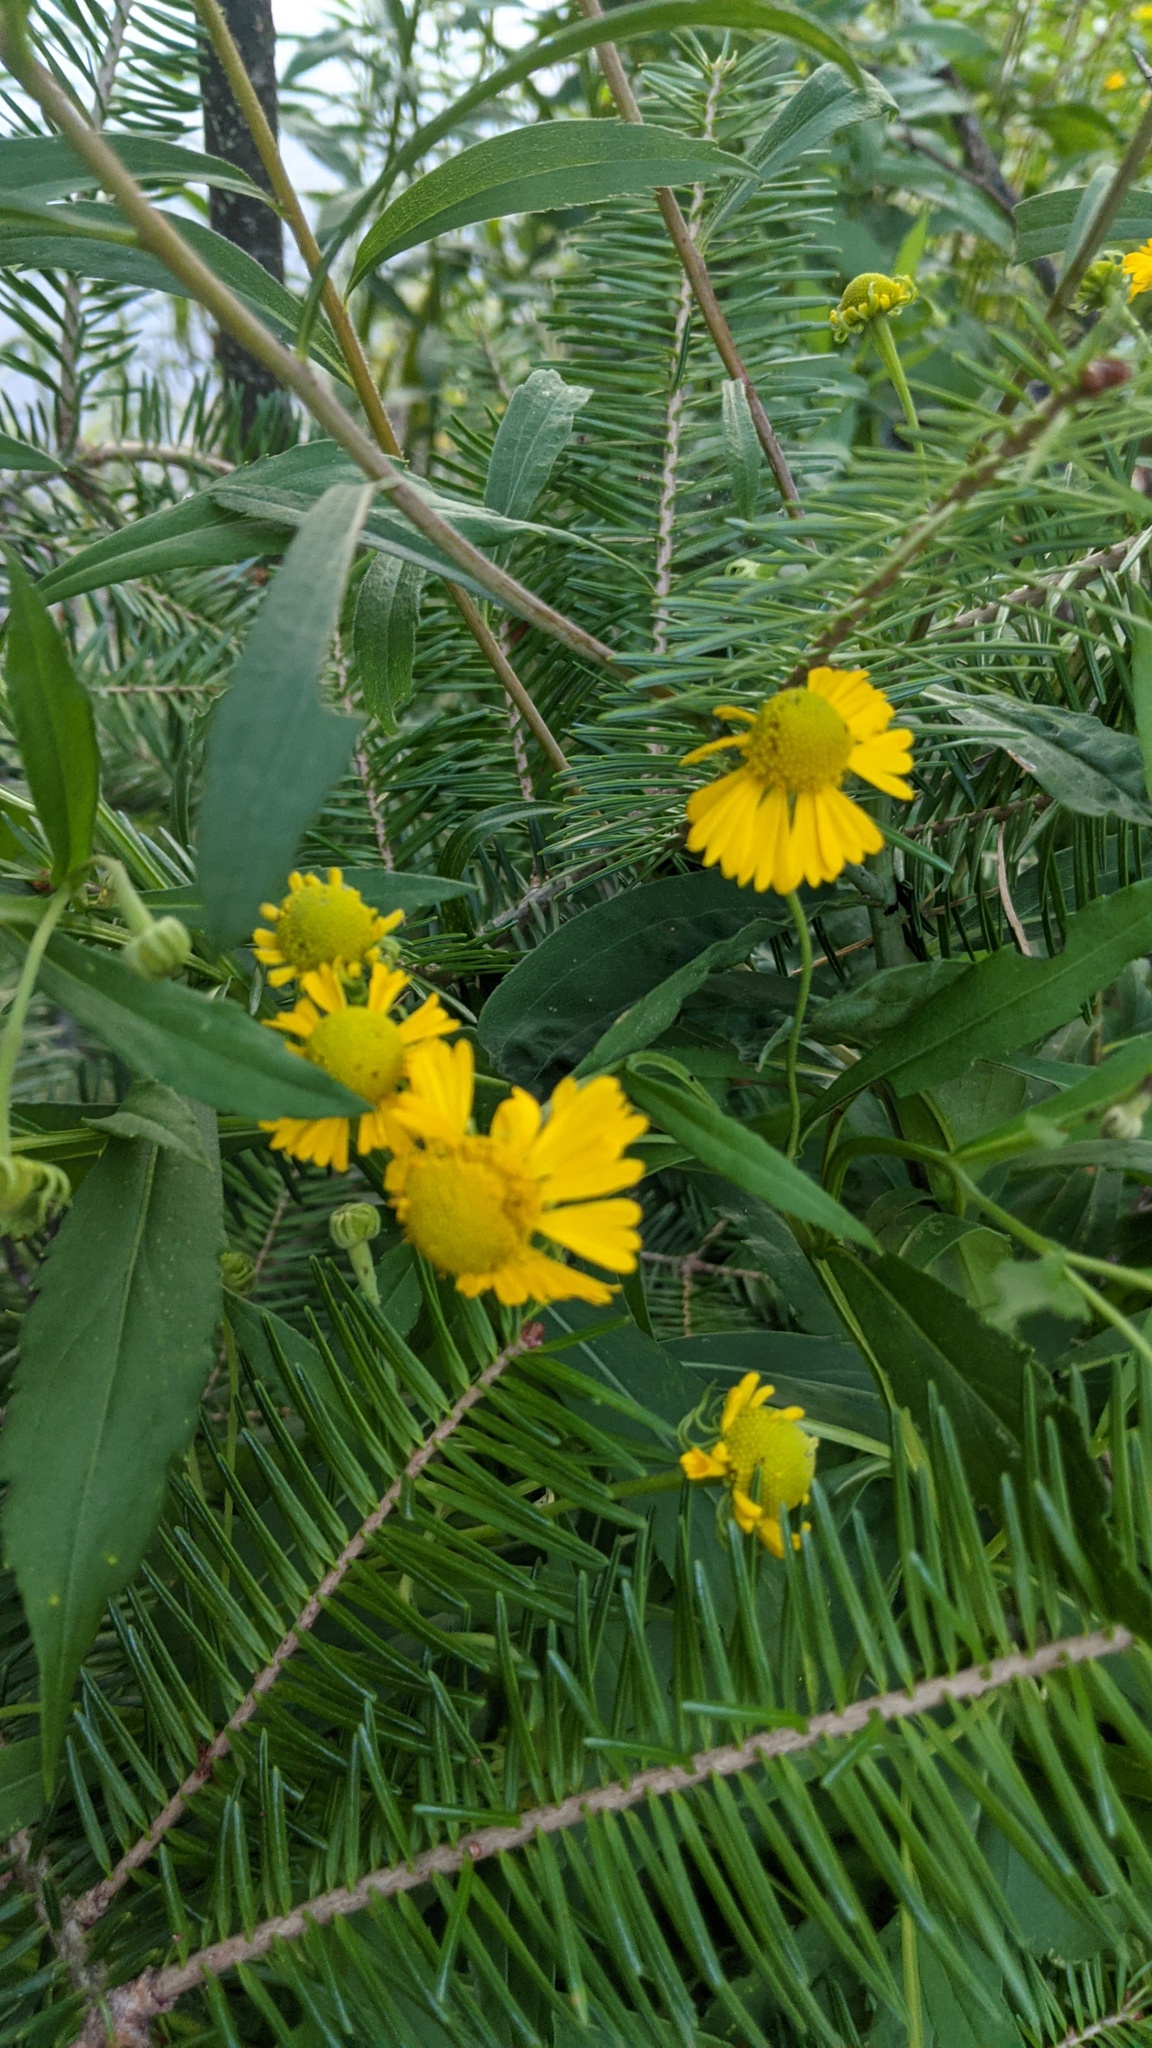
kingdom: Plantae
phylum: Tracheophyta
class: Magnoliopsida
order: Asterales
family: Asteraceae
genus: Helenium
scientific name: Helenium autumnale
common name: Sneezeweed
